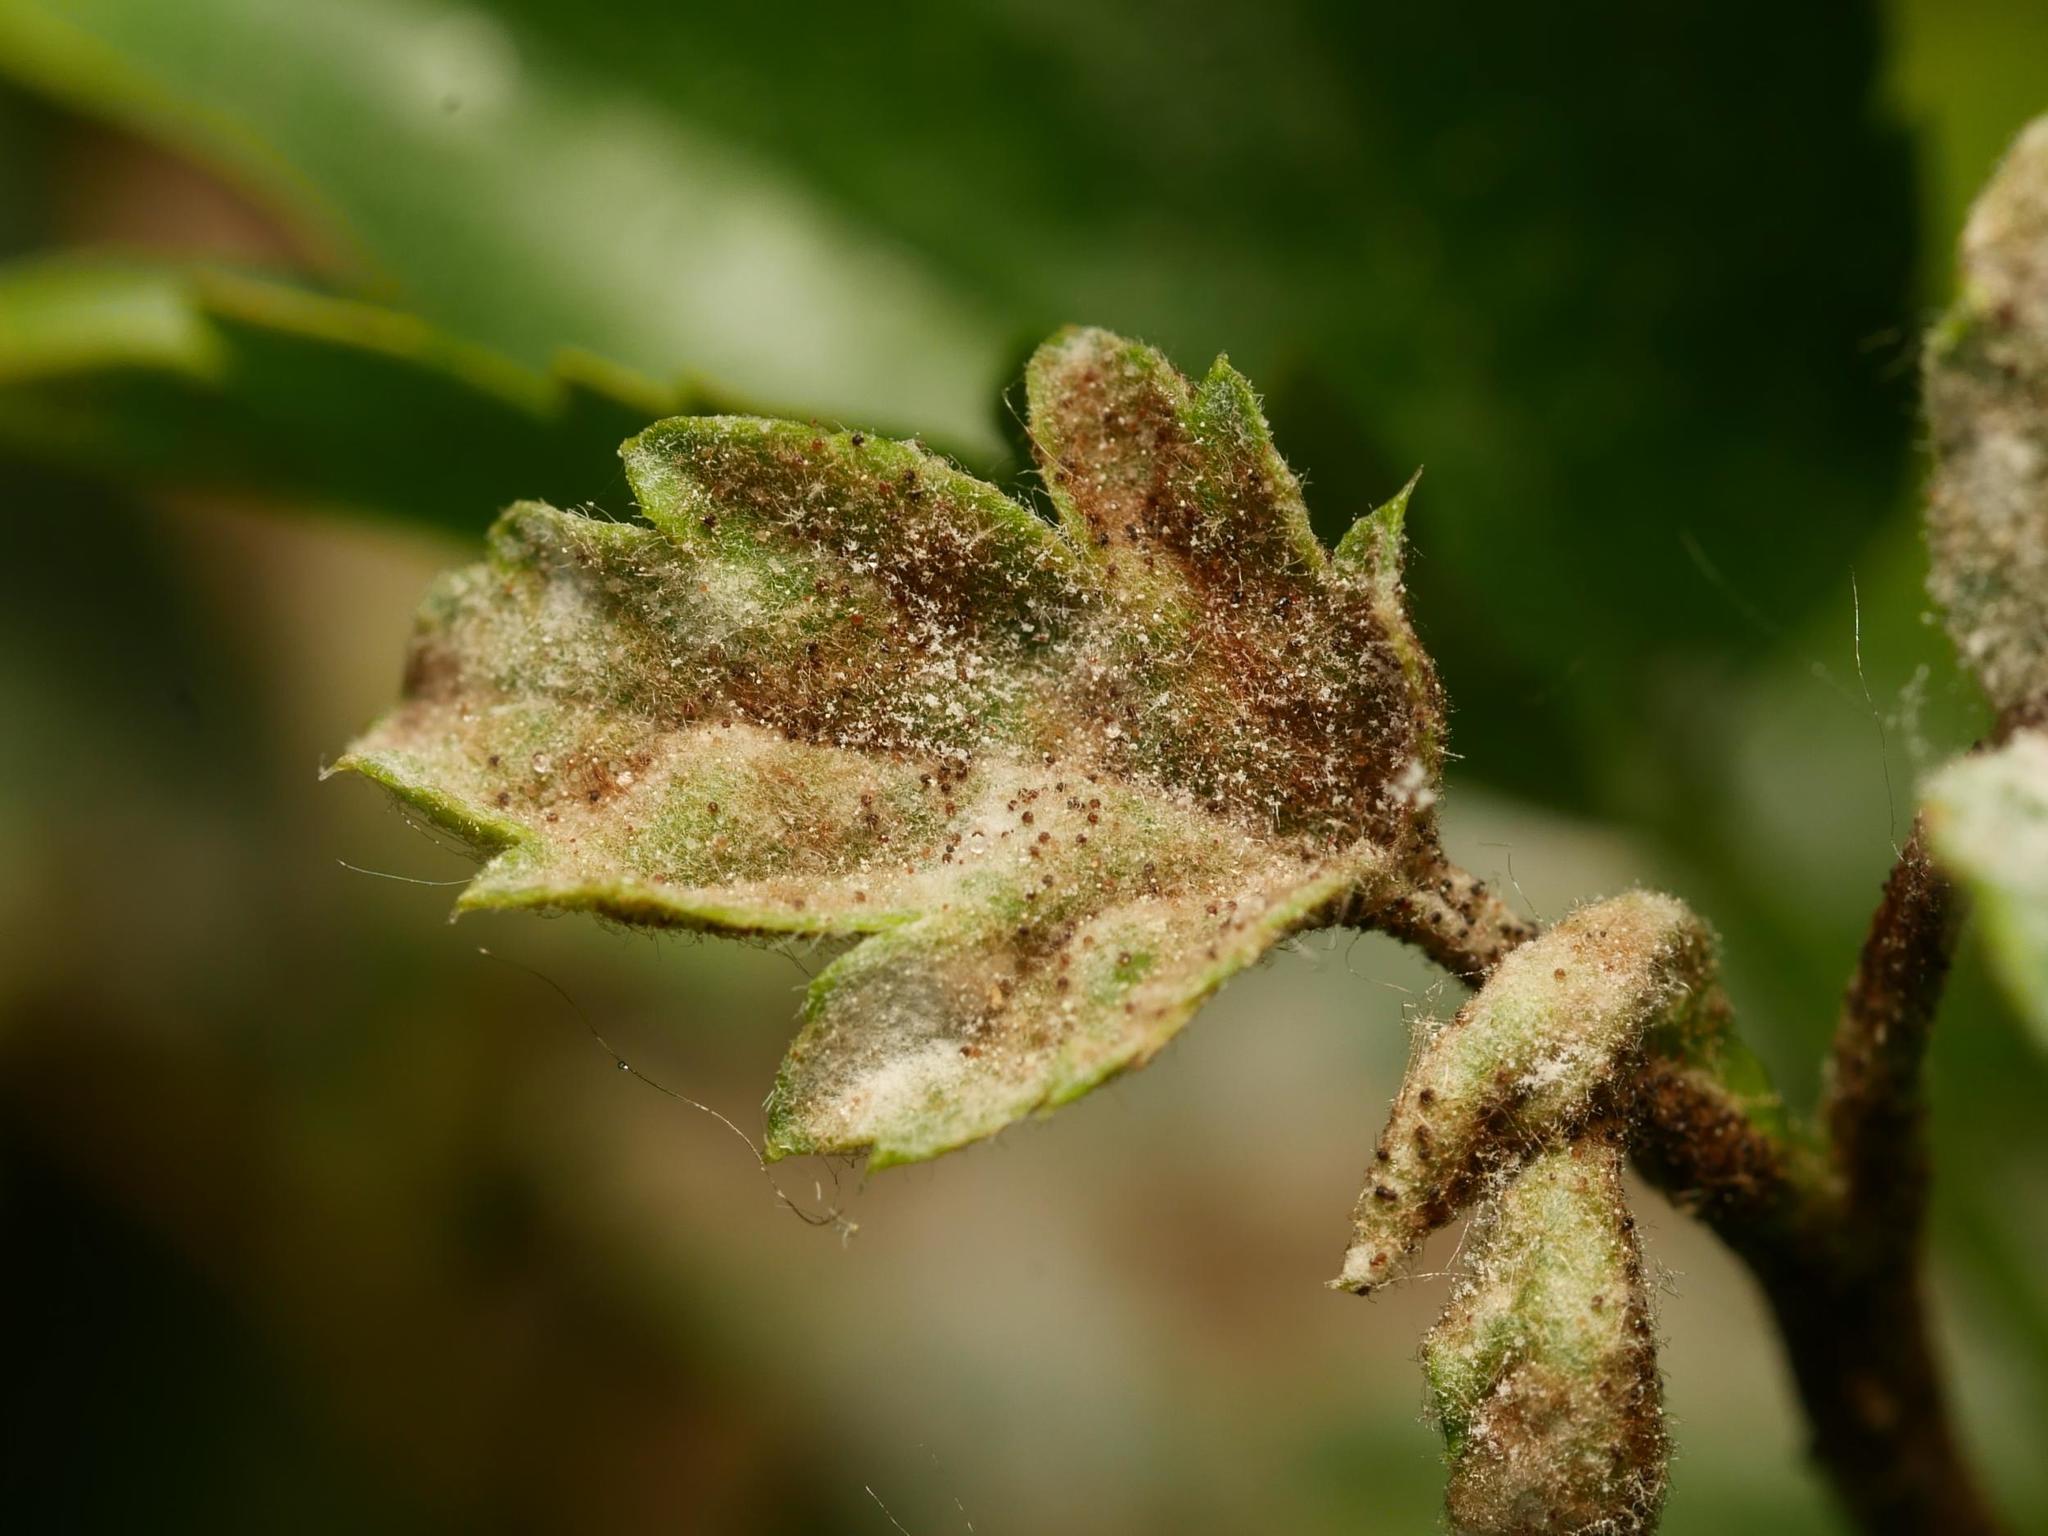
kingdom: Fungi
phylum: Ascomycota
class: Leotiomycetes
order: Helotiales
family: Erysiphaceae
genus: Podosphaera
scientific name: Podosphaera mors-uvae
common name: American gooseberry mildew
